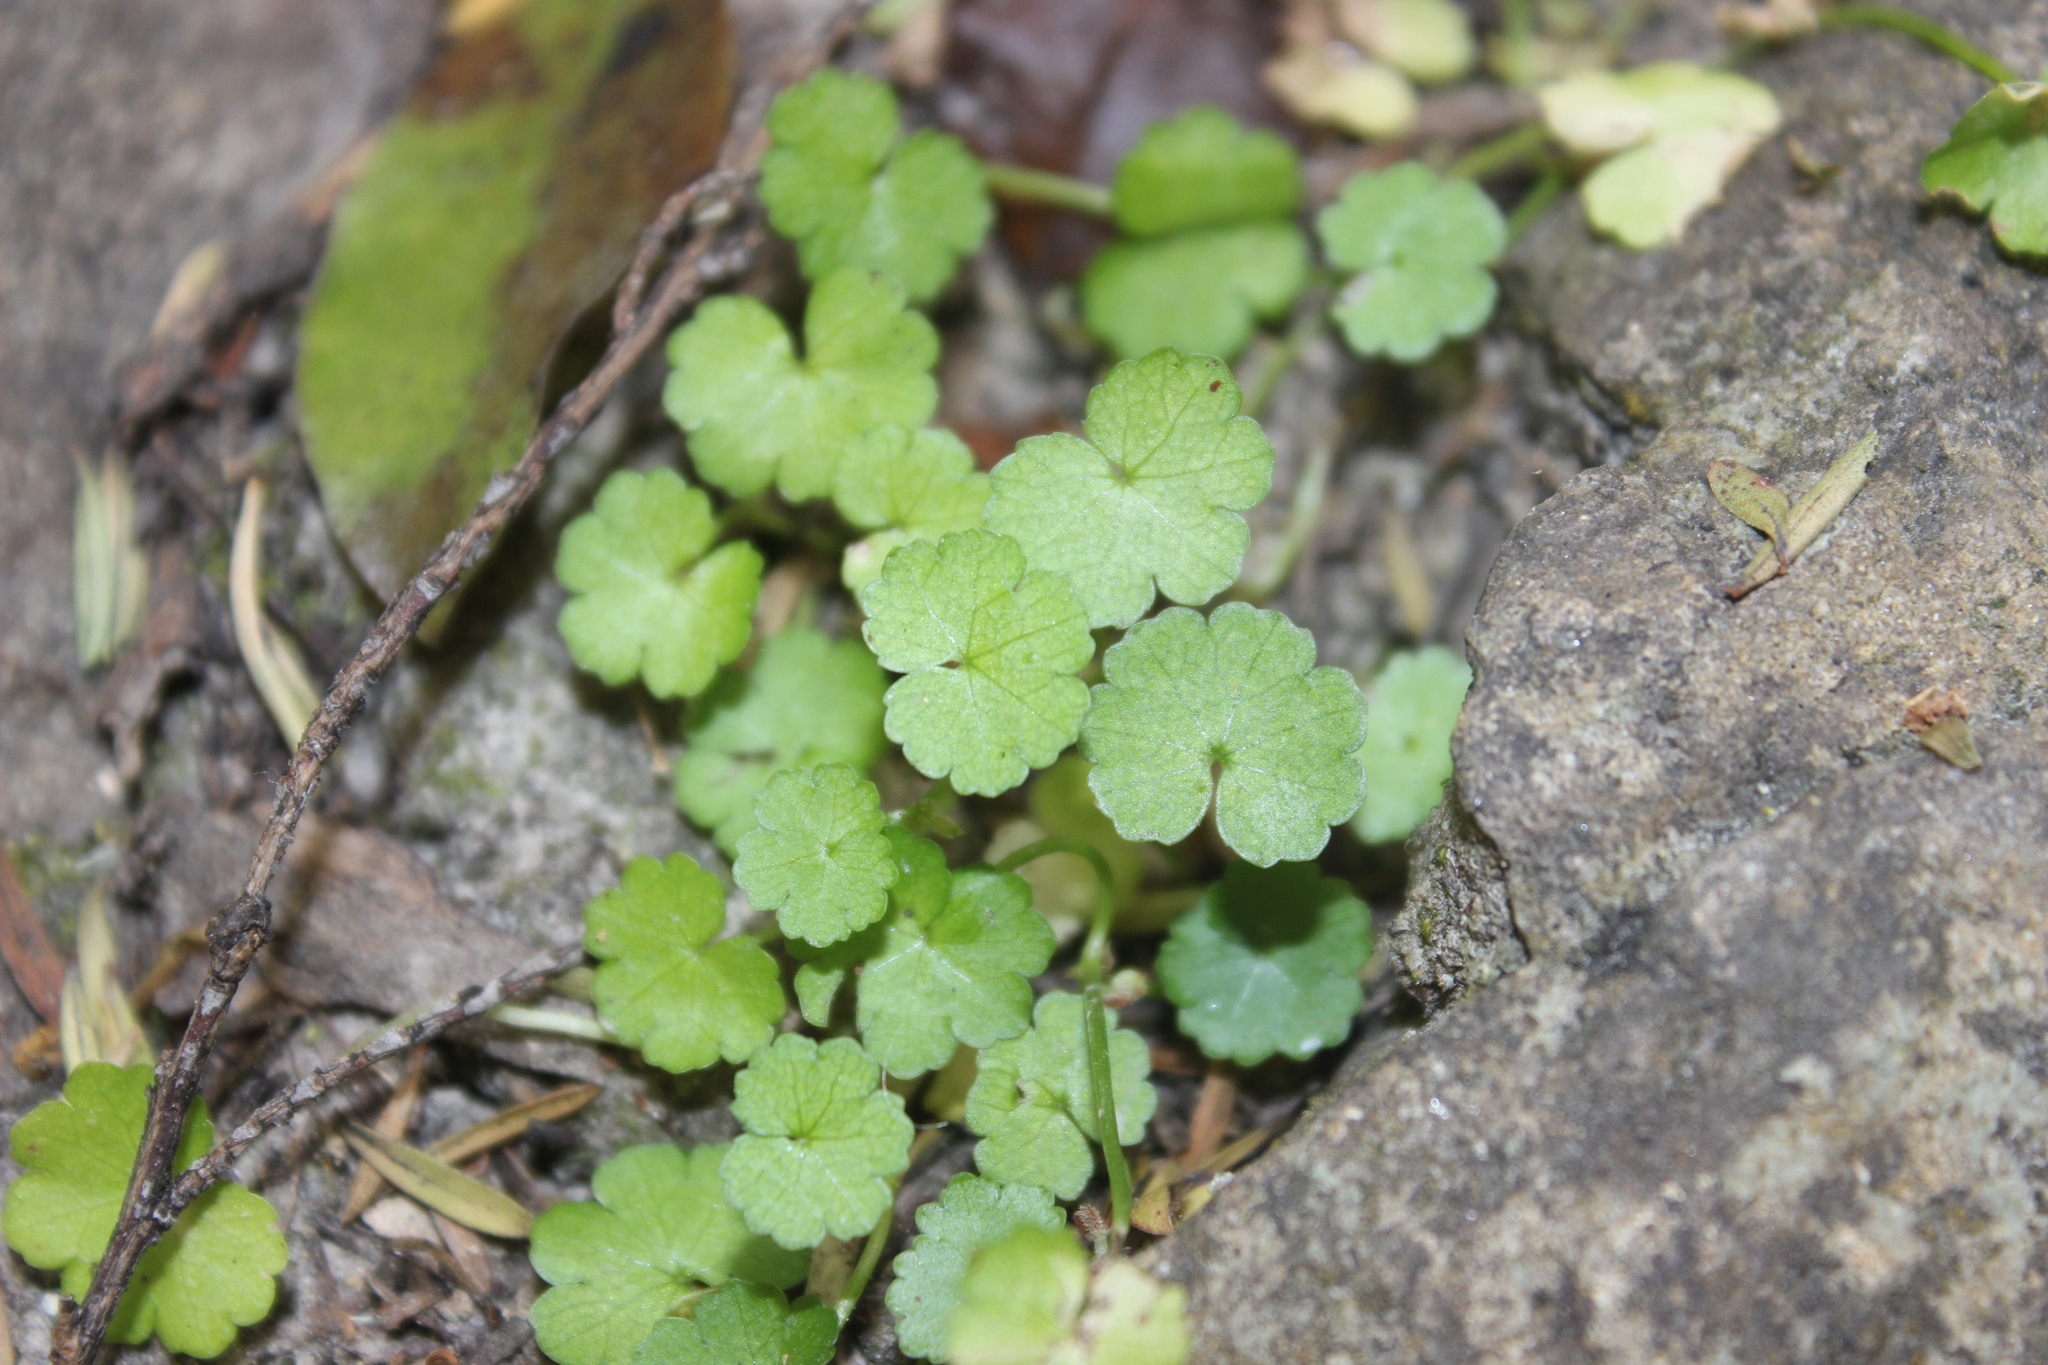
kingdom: Plantae
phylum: Tracheophyta
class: Magnoliopsida
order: Apiales
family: Araliaceae
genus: Hydrocotyle
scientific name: Hydrocotyle heteromeria
